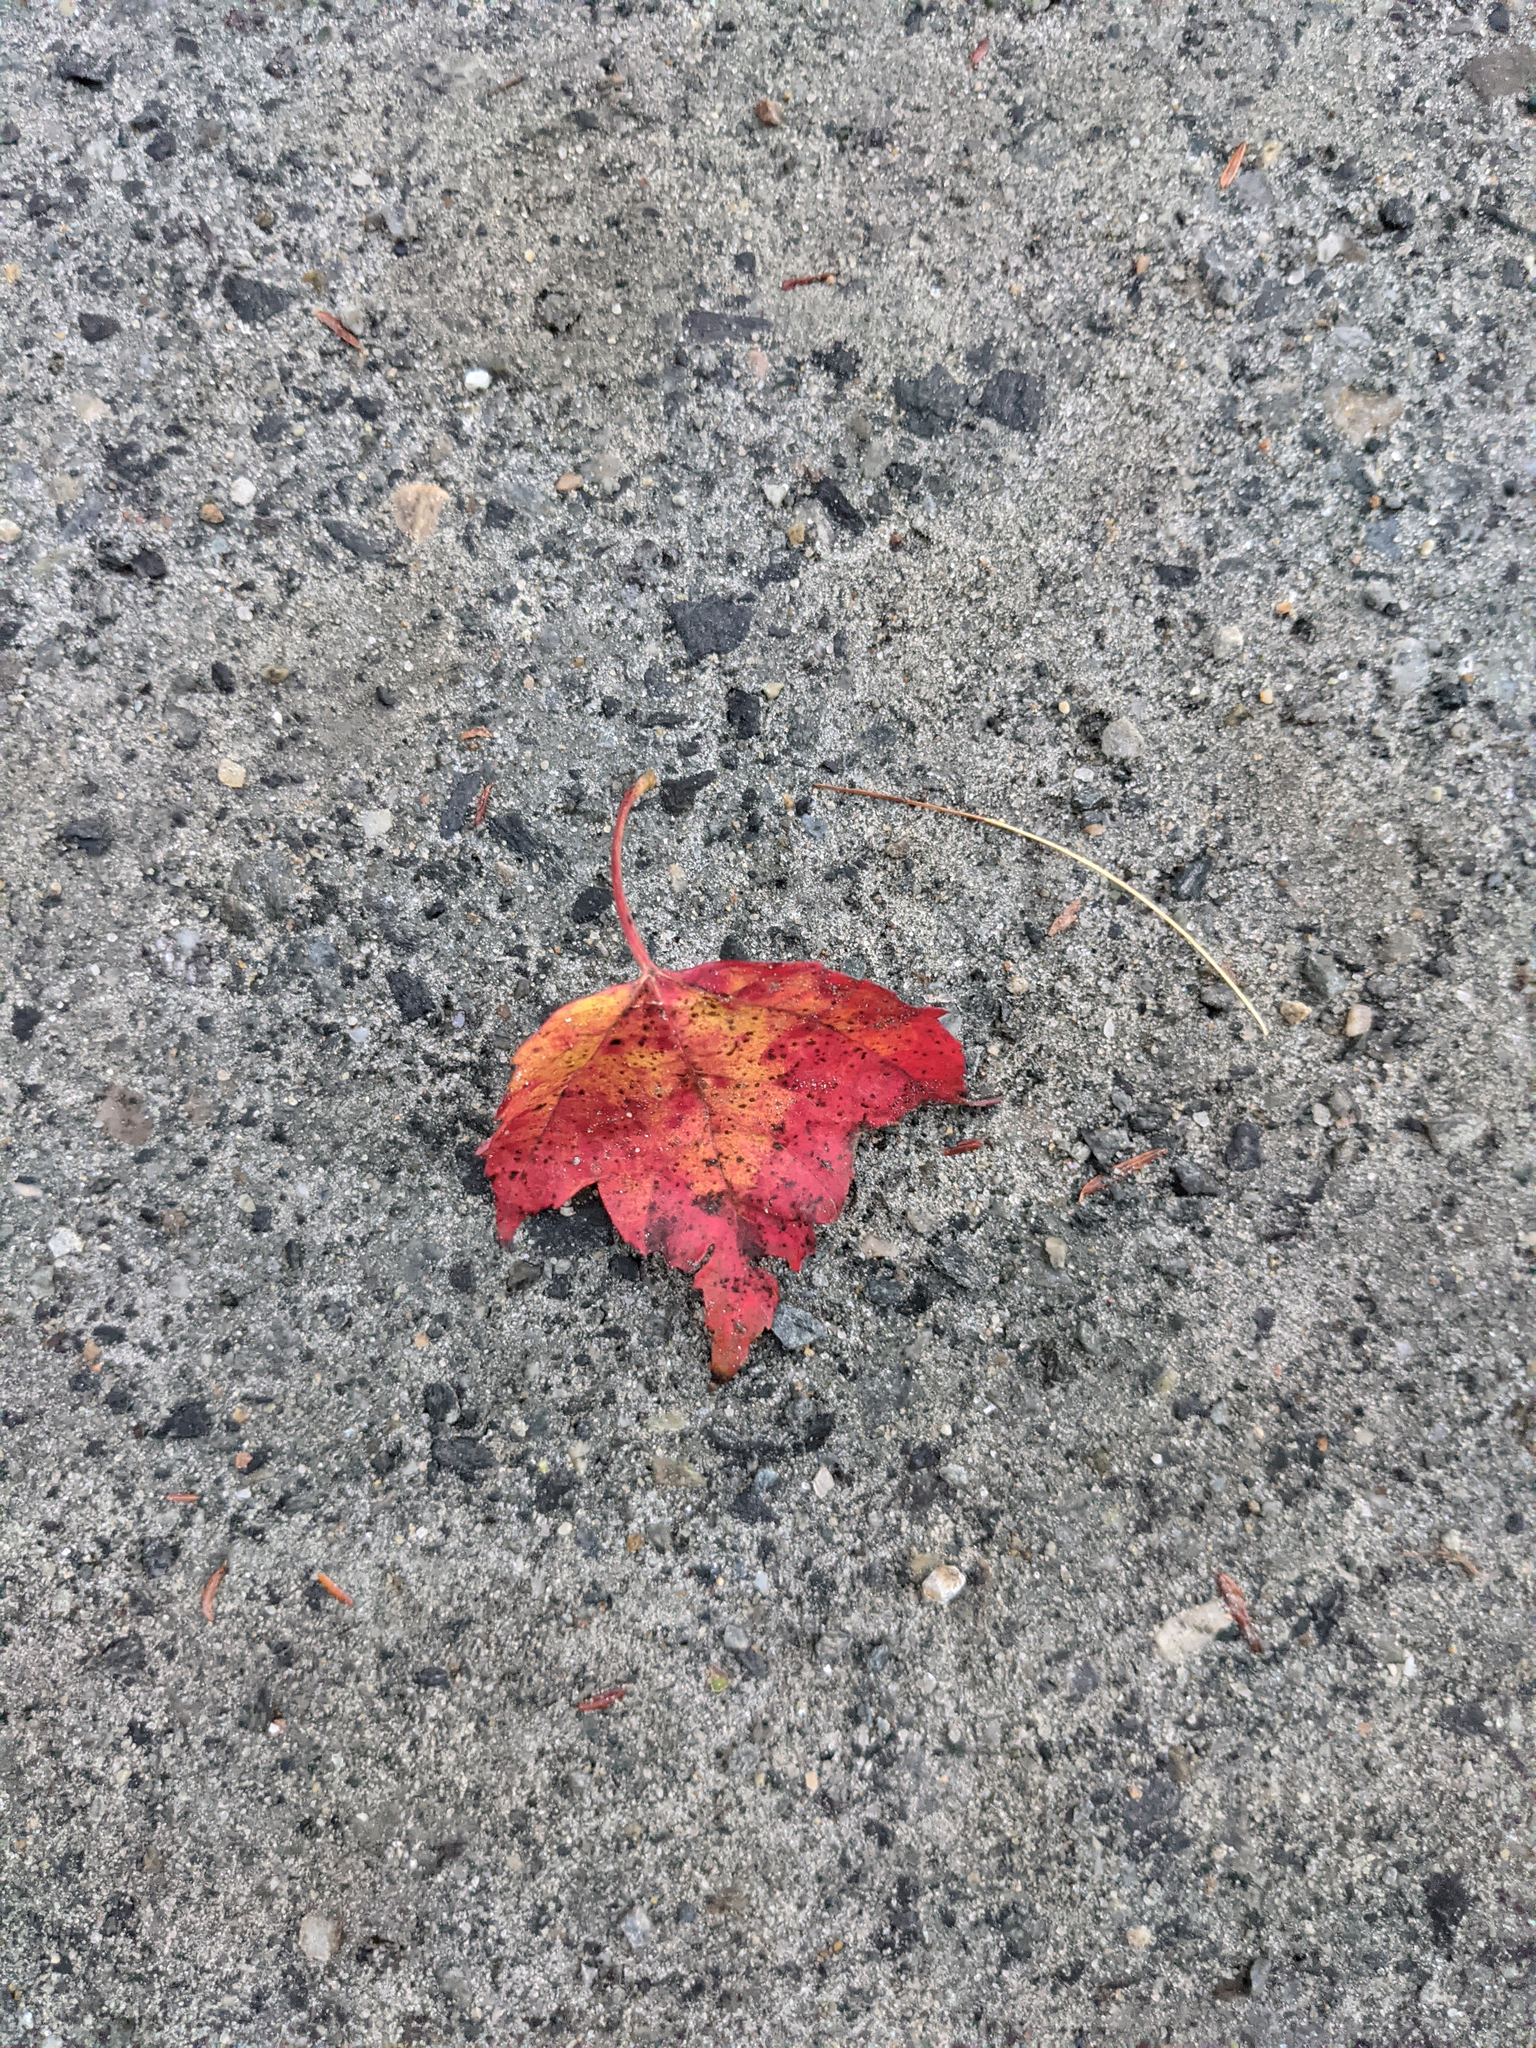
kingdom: Plantae
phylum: Tracheophyta
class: Magnoliopsida
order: Sapindales
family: Sapindaceae
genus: Acer
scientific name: Acer rubrum
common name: Red maple
